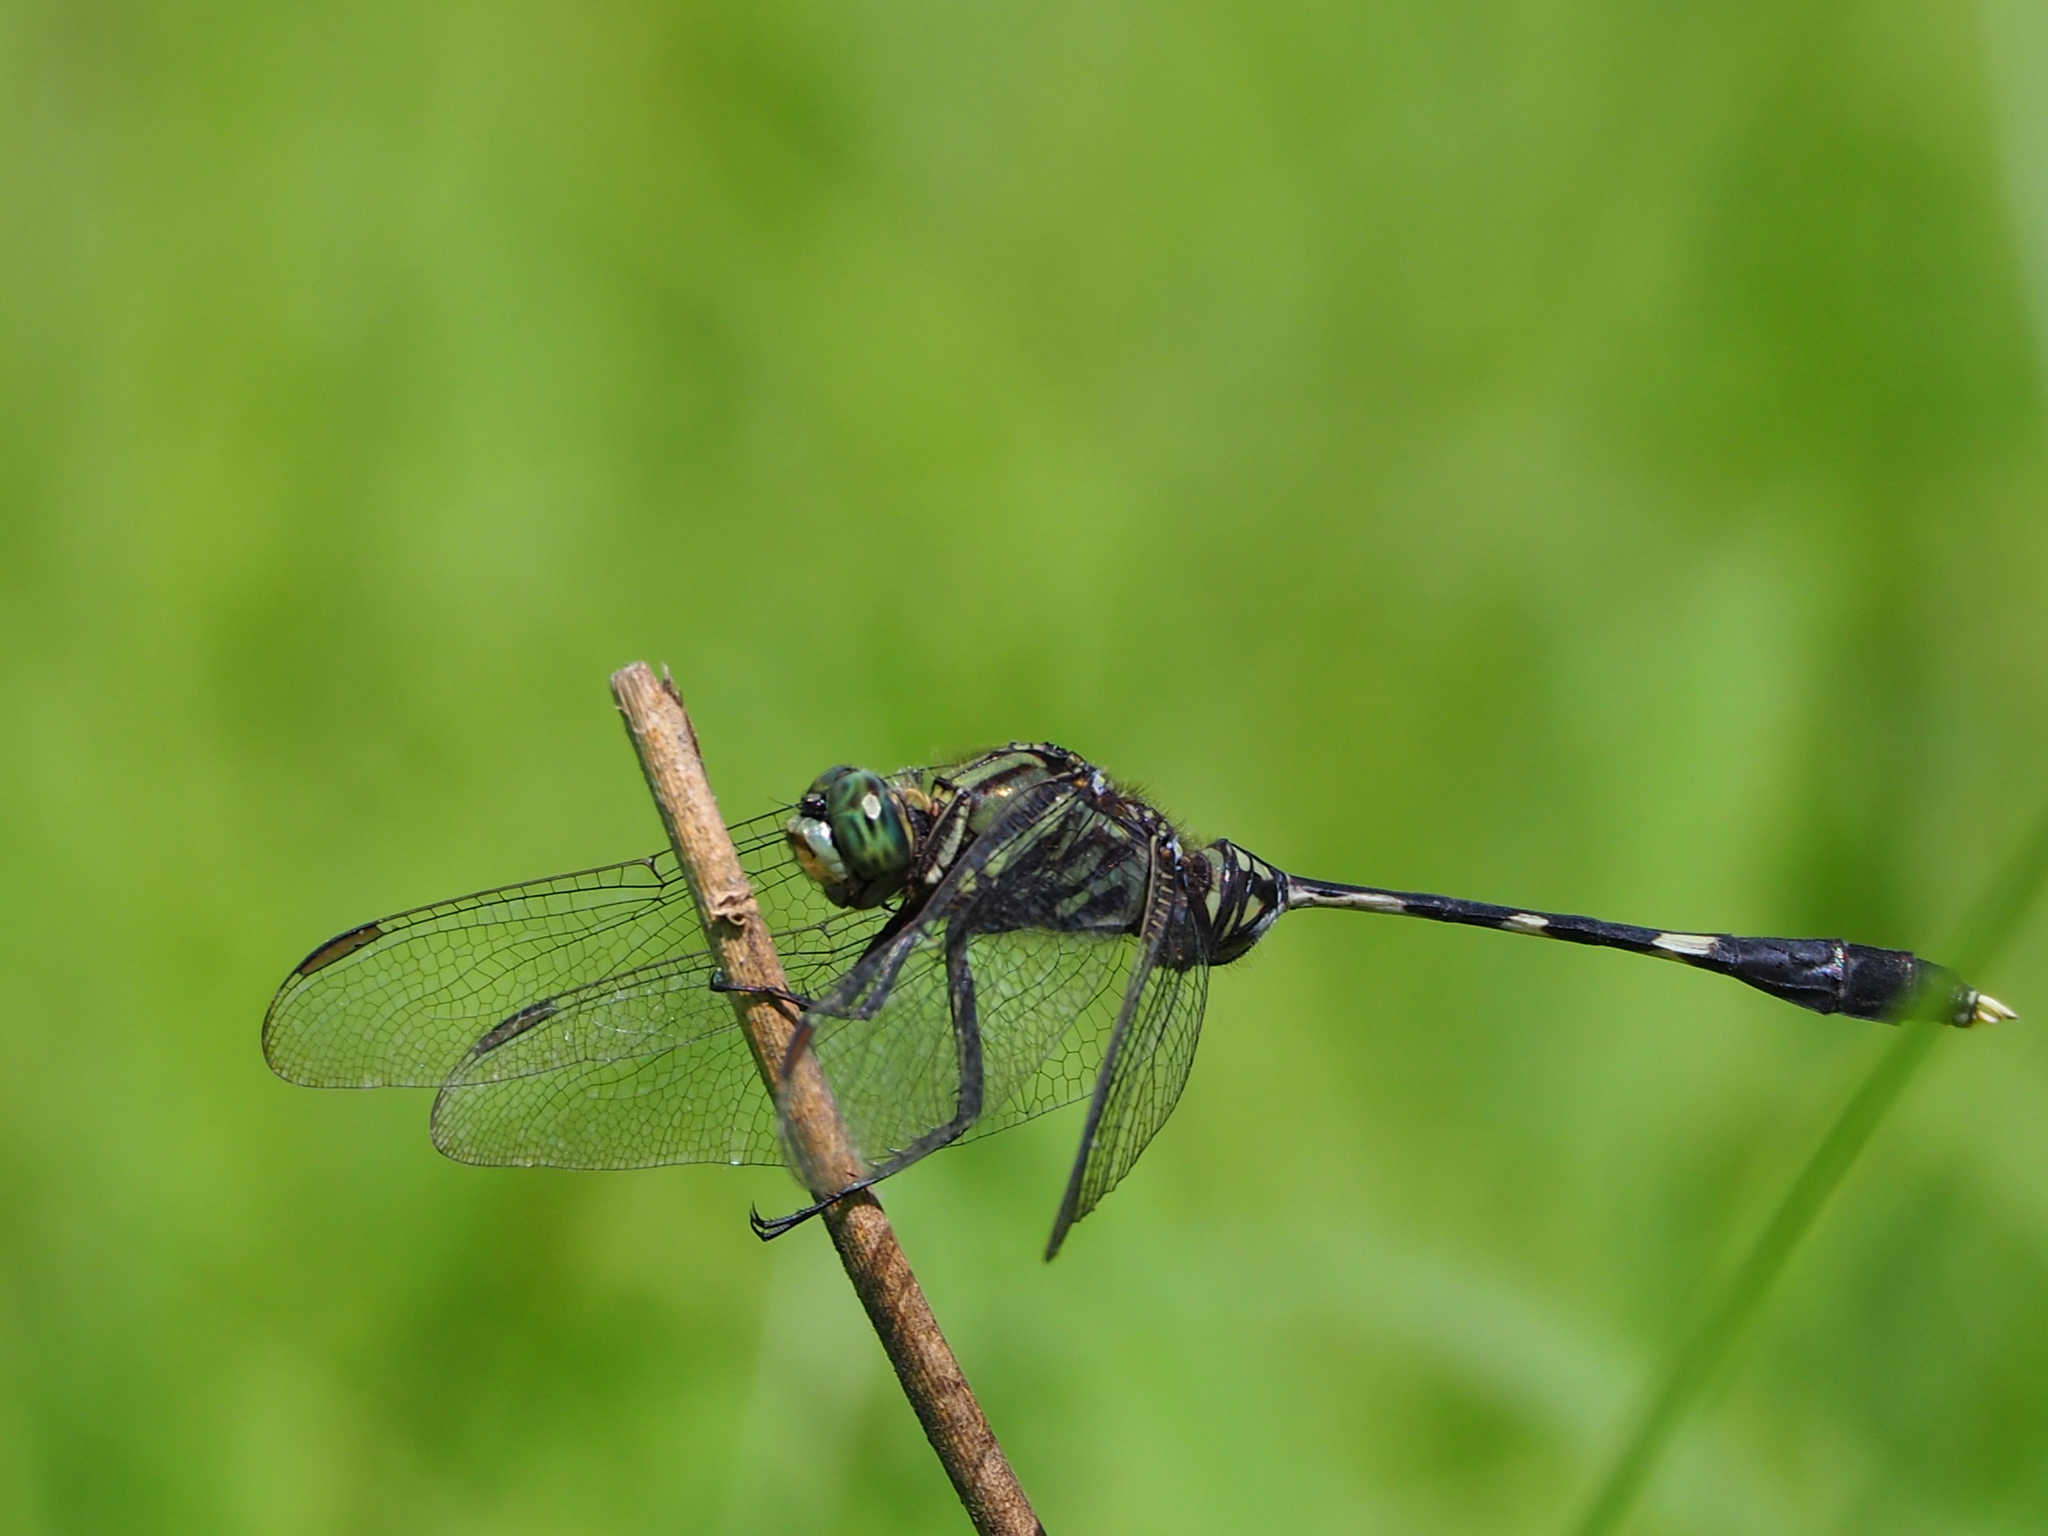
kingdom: Animalia
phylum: Arthropoda
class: Insecta
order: Odonata
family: Libellulidae
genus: Orthetrum
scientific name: Orthetrum sabina
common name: Slender skimmer
